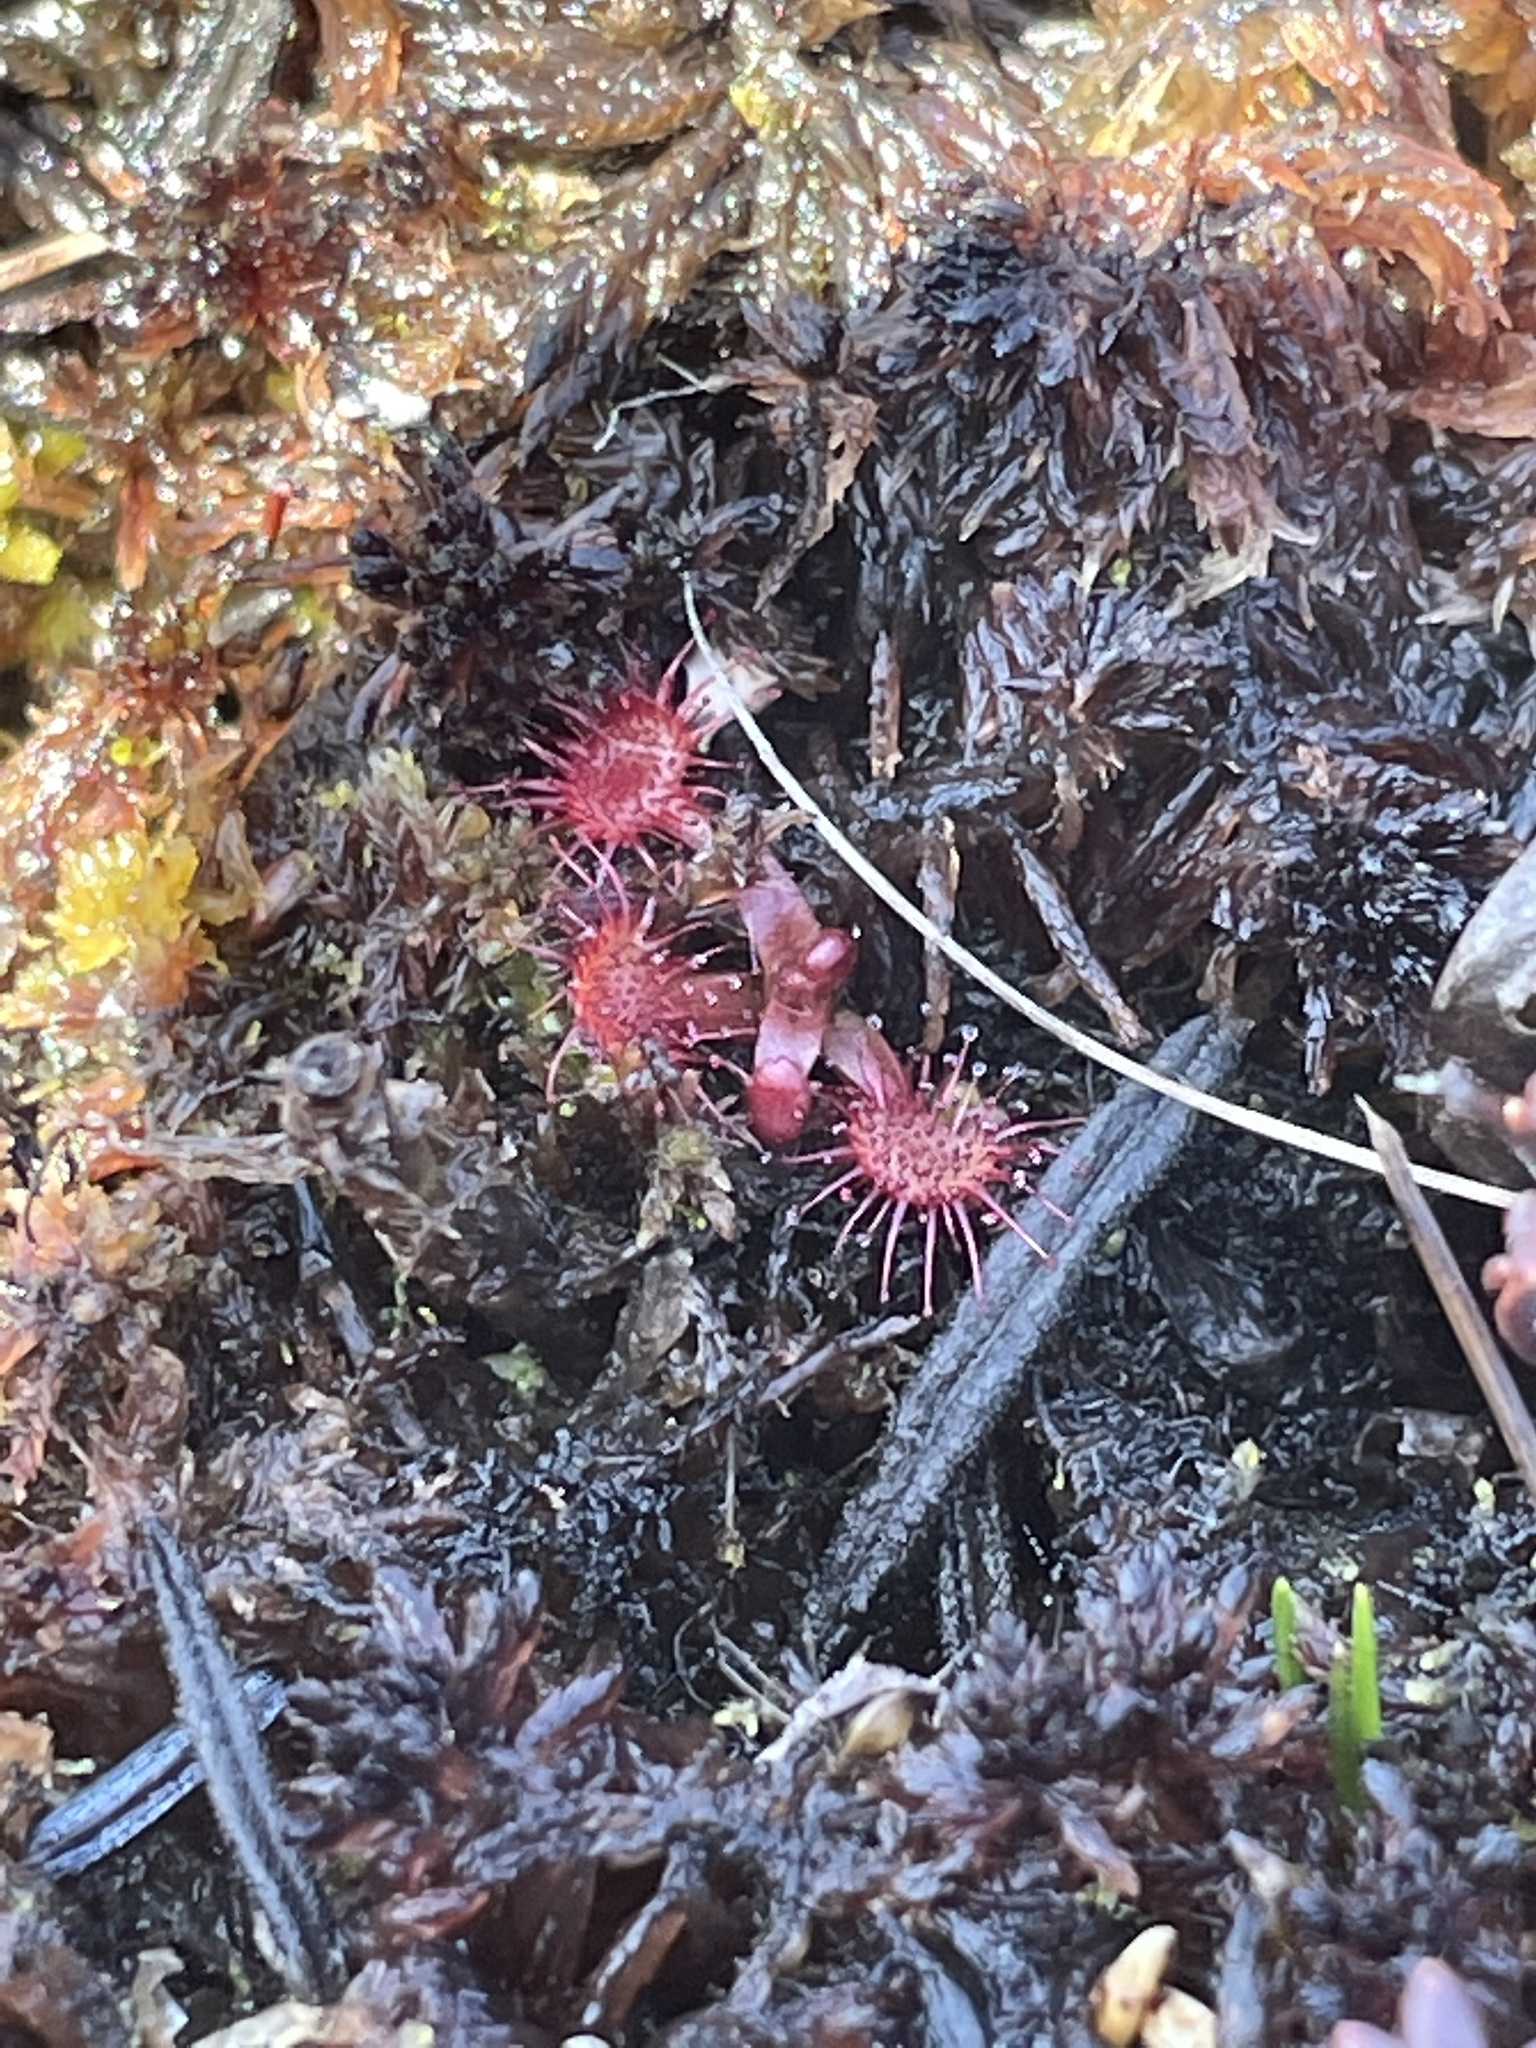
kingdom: Plantae
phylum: Tracheophyta
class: Magnoliopsida
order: Caryophyllales
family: Droseraceae
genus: Drosera
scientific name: Drosera rotundifolia
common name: Round-leaved sundew
